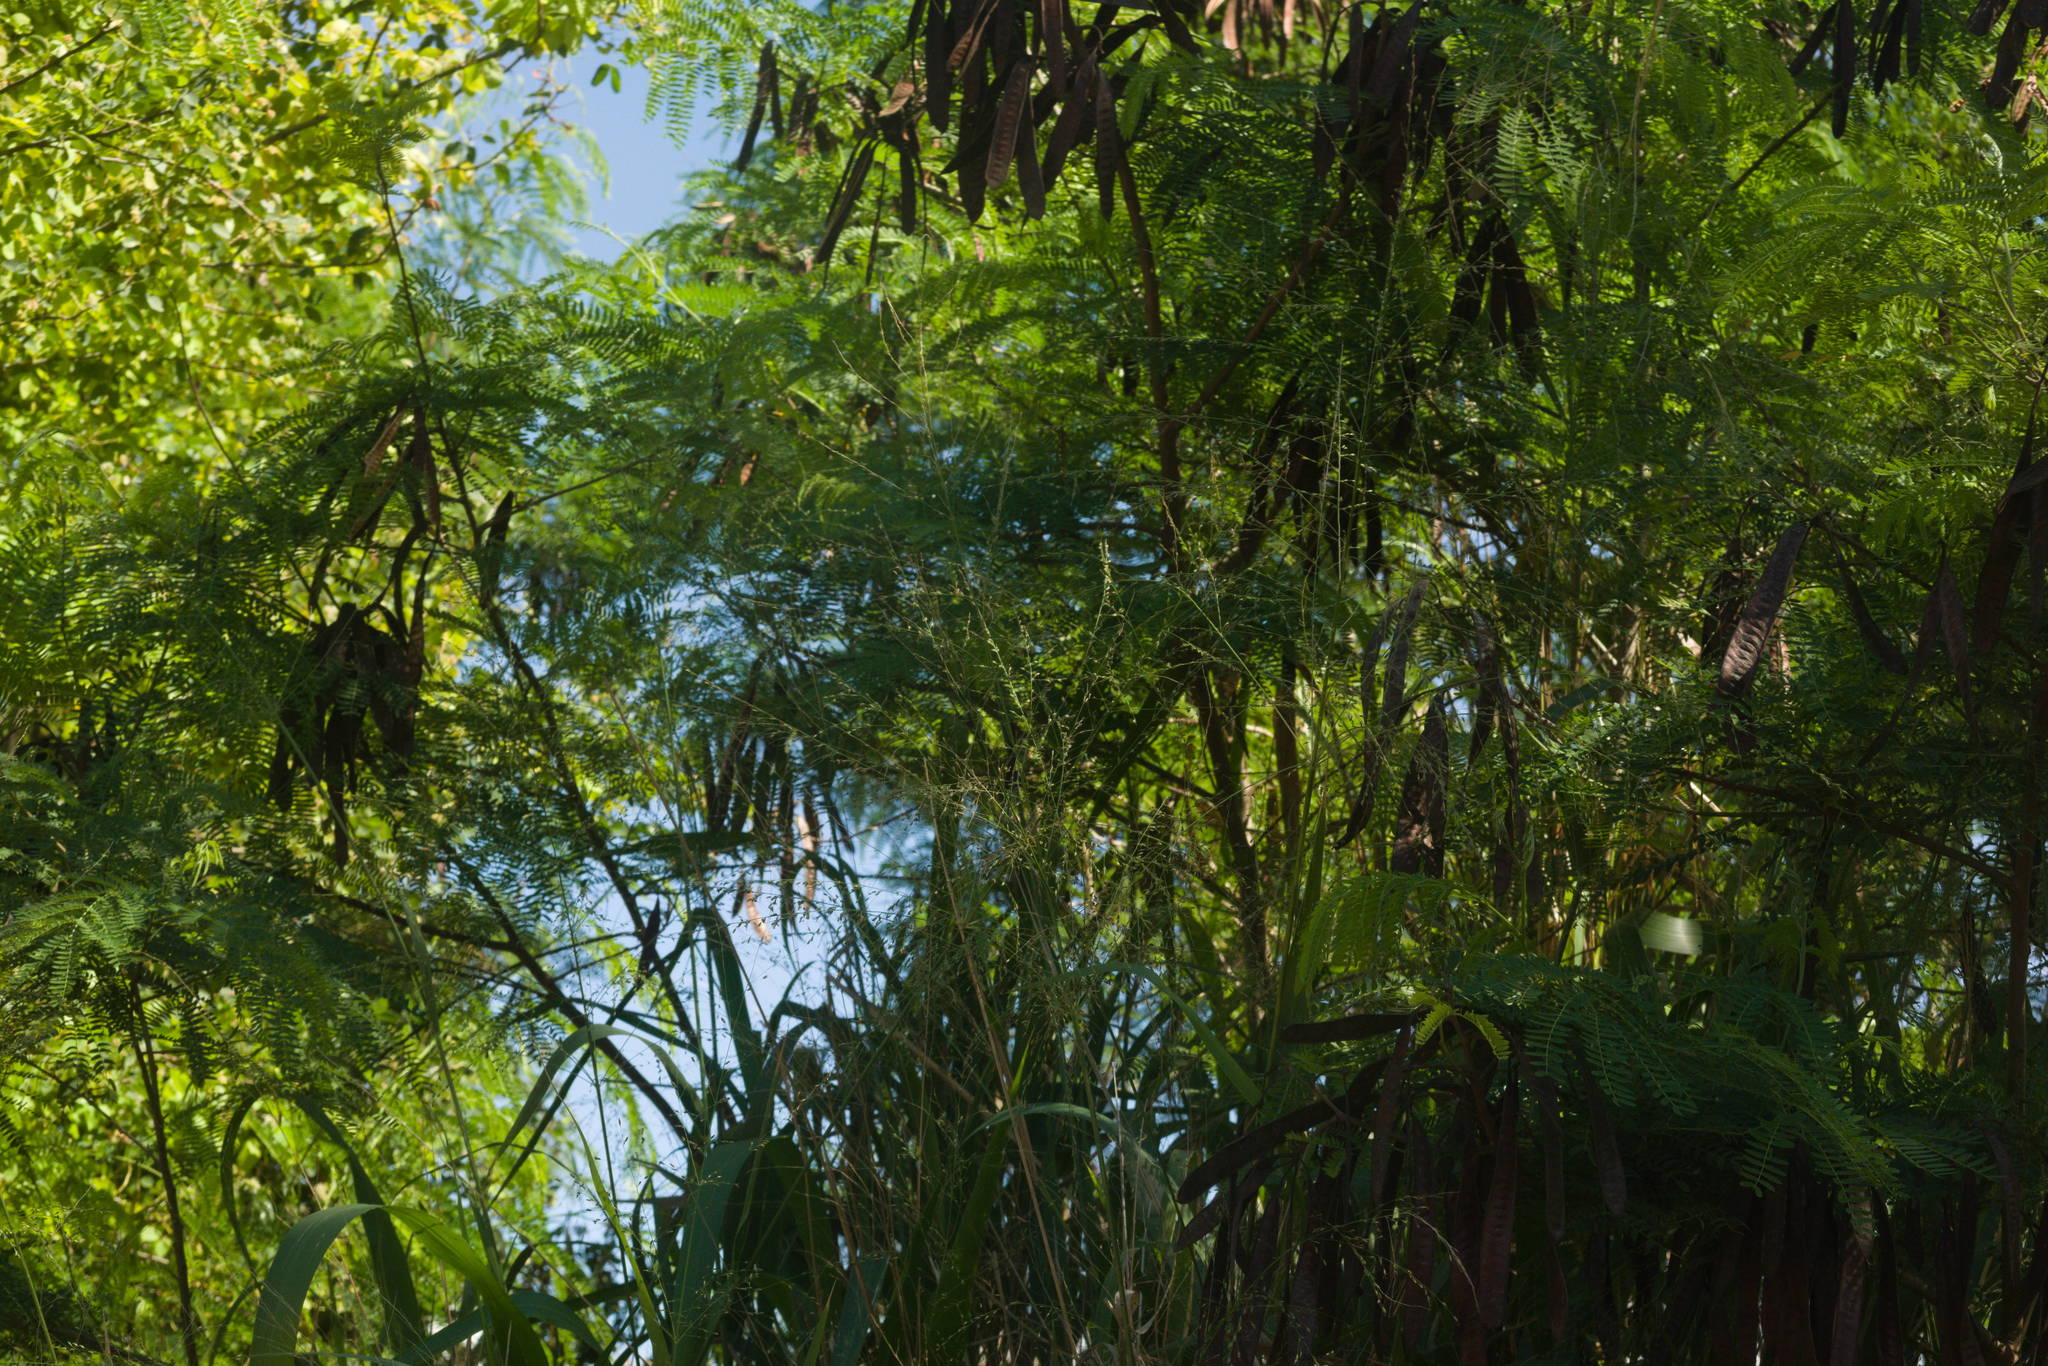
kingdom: Plantae
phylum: Tracheophyta
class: Magnoliopsida
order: Fabales
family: Fabaceae
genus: Leucaena
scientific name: Leucaena leucocephala
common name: White leadtree
